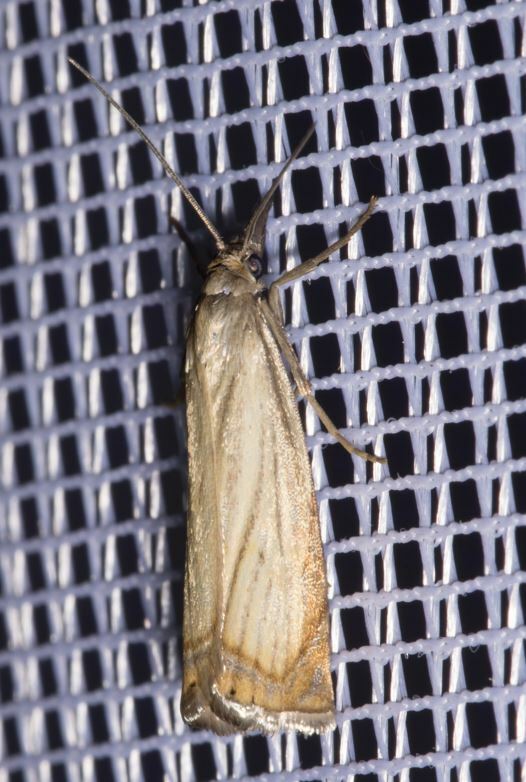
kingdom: Animalia
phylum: Arthropoda
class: Insecta
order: Lepidoptera
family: Crambidae
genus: Chrysoteuchia
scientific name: Chrysoteuchia culmella
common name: Garden grass-veneer
